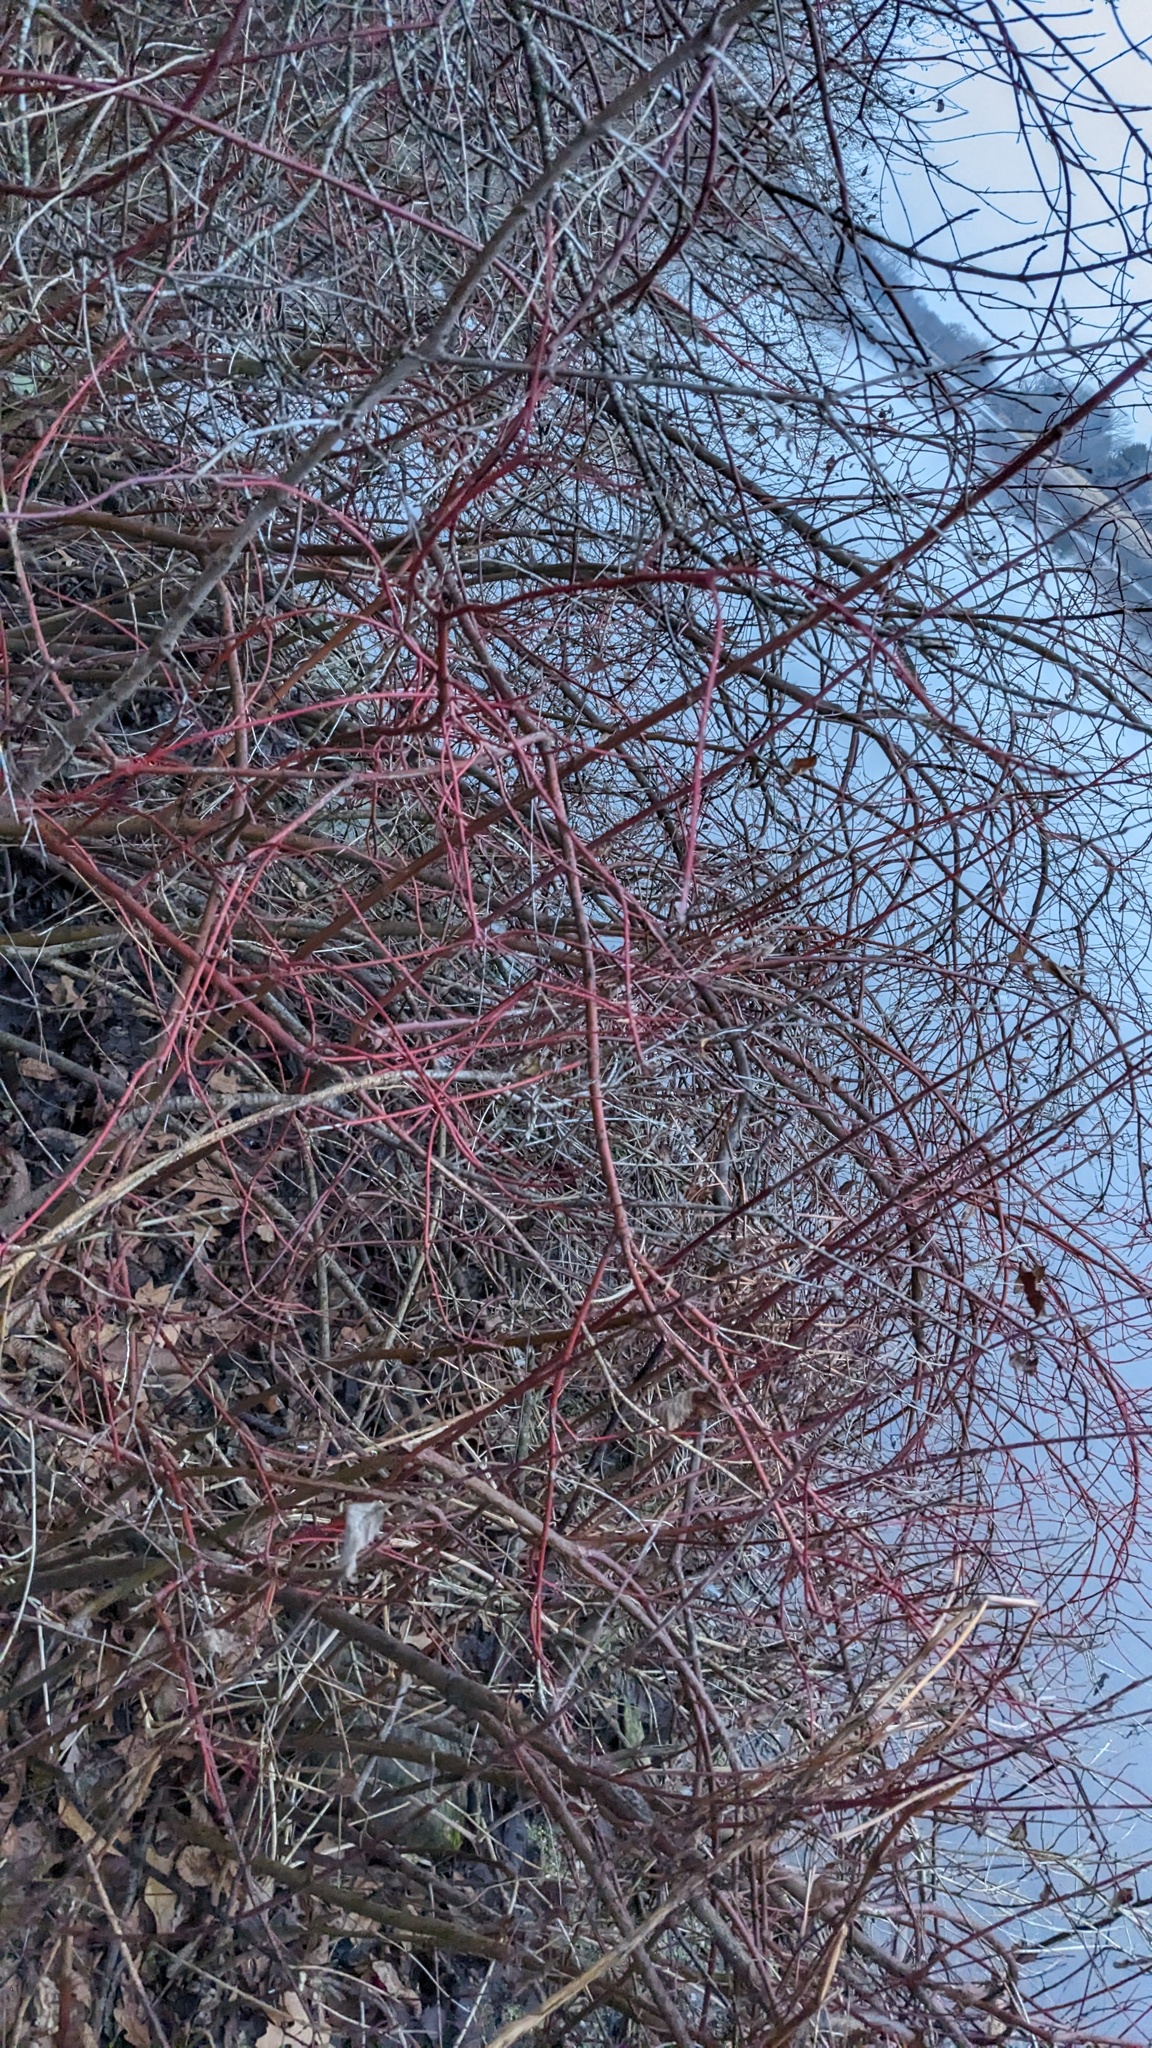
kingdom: Plantae
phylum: Tracheophyta
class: Magnoliopsida
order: Cornales
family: Cornaceae
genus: Cornus
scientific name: Cornus sericea
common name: Red-osier dogwood
